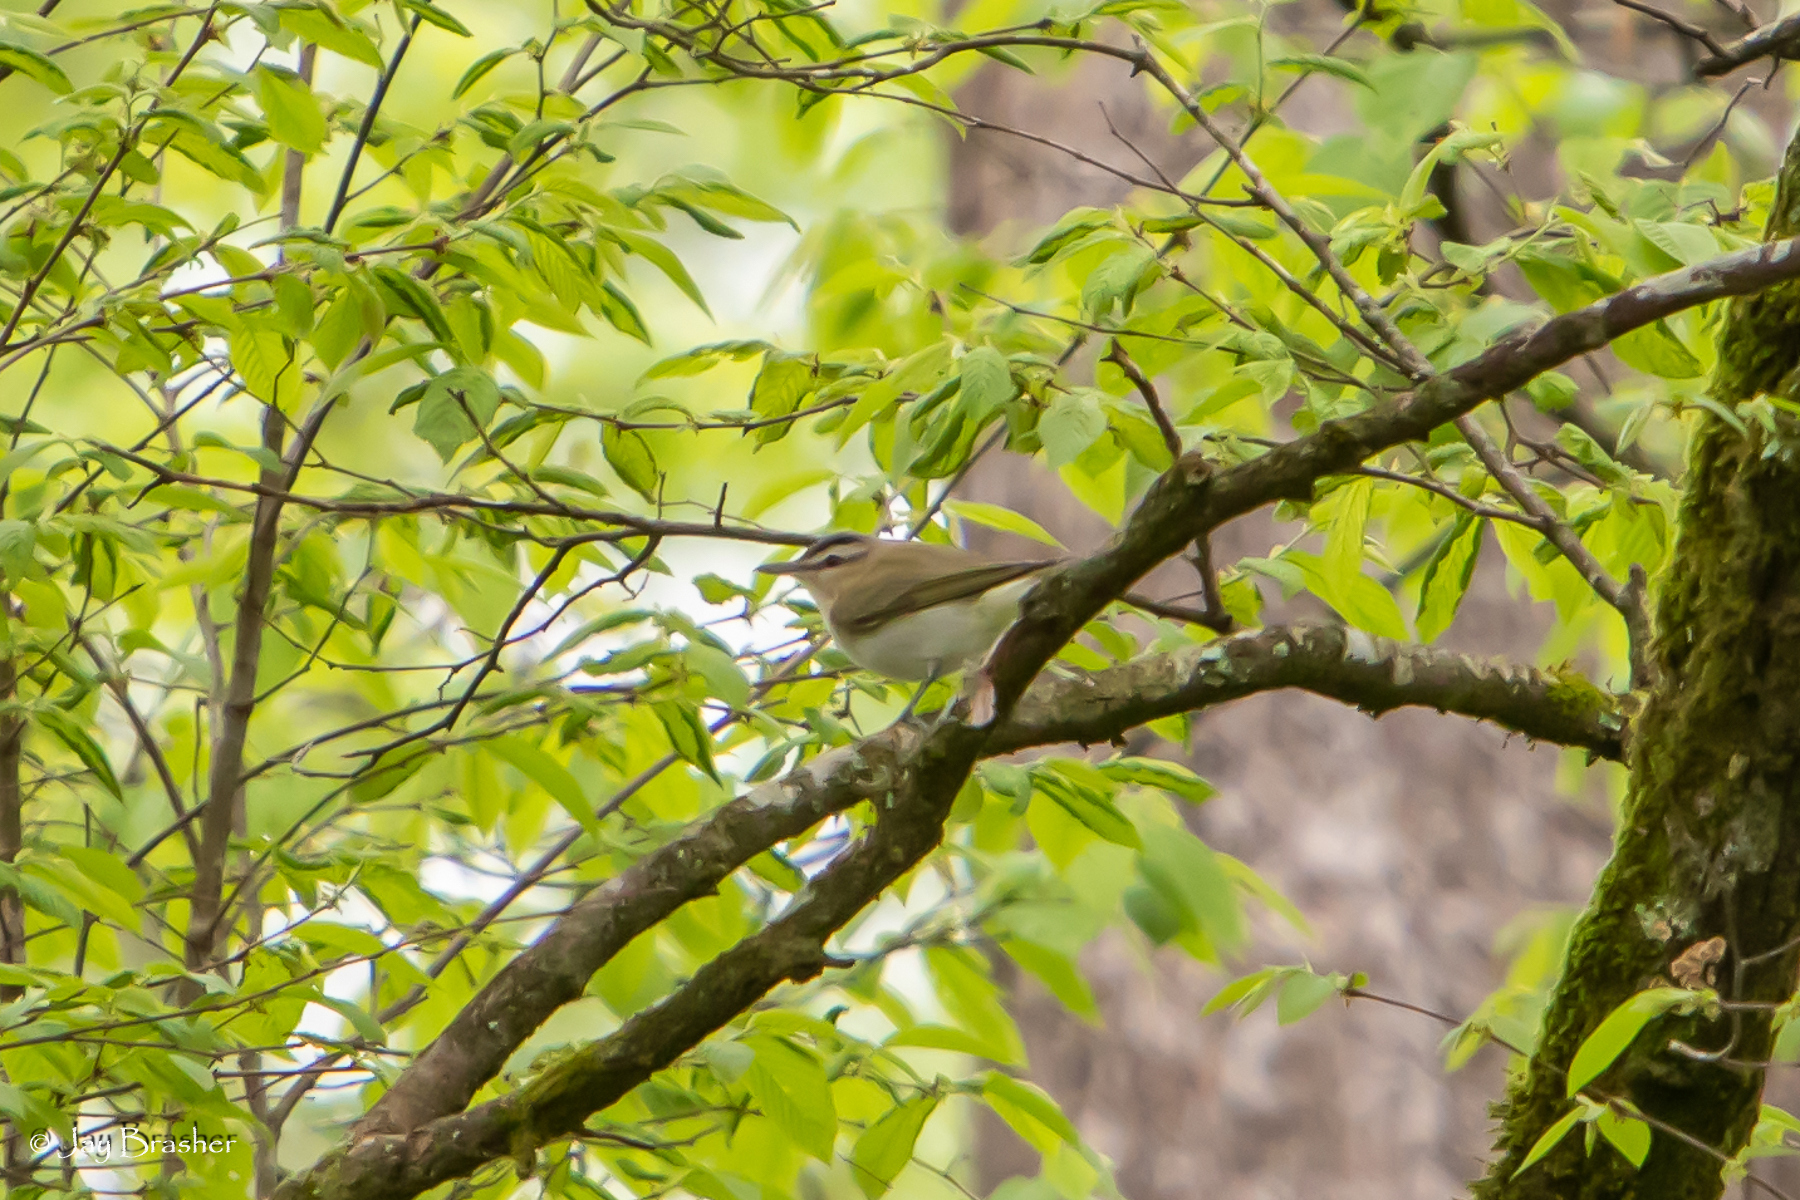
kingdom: Animalia
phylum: Chordata
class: Aves
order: Passeriformes
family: Vireonidae
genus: Vireo
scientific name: Vireo olivaceus
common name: Red-eyed vireo
